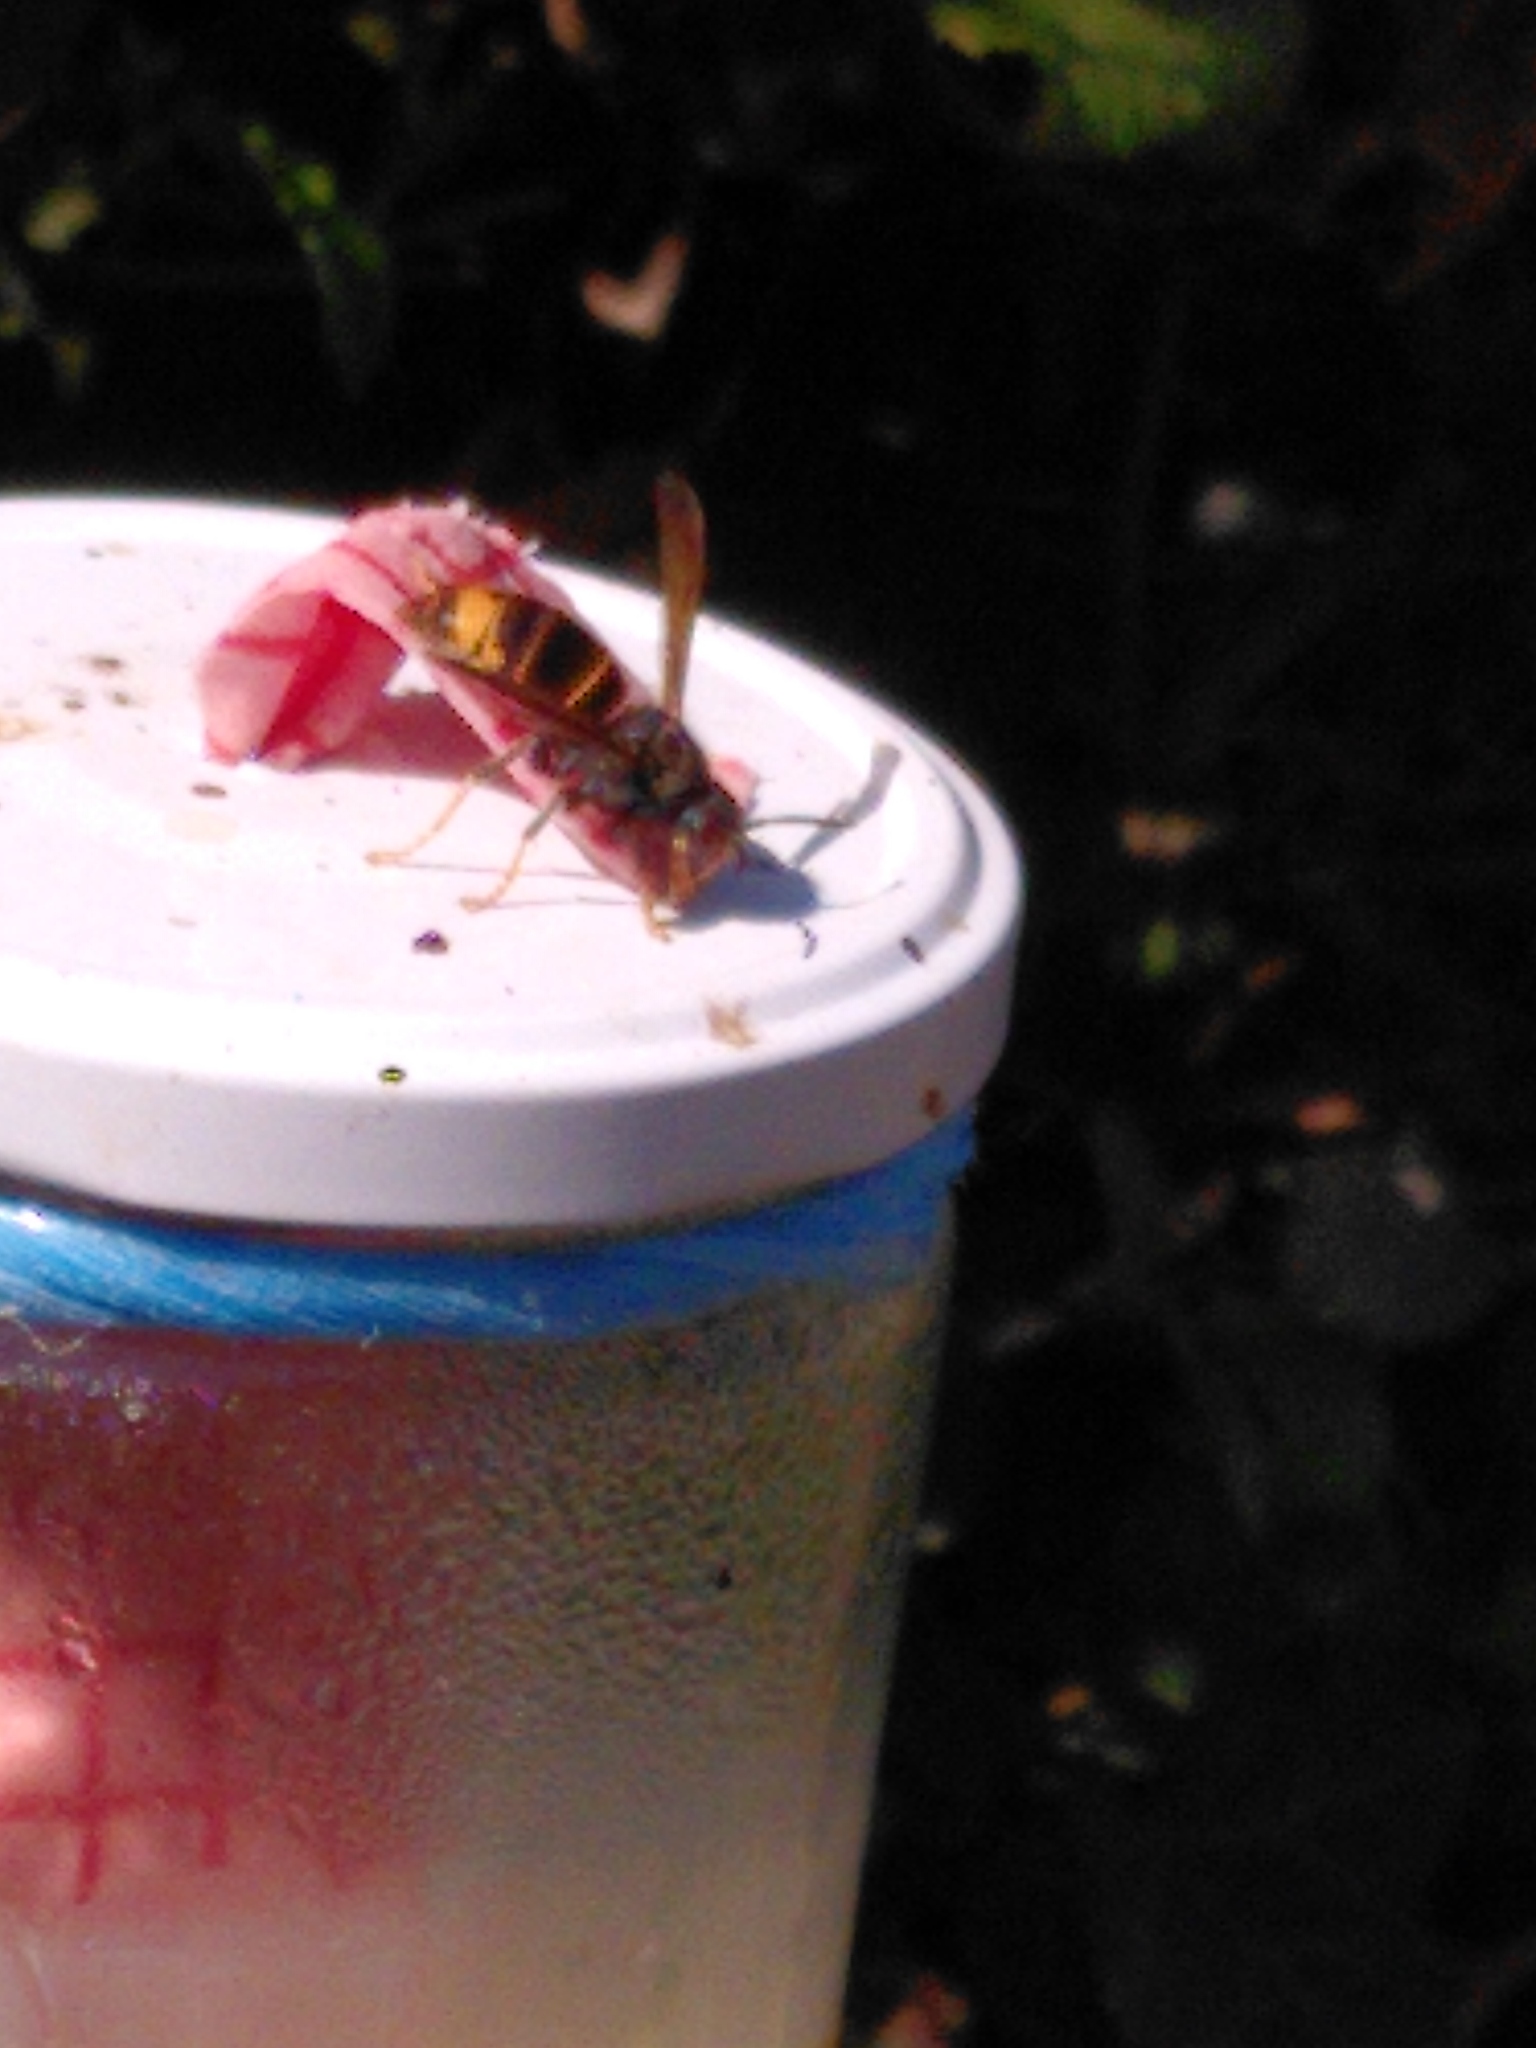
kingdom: Animalia
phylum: Arthropoda
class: Insecta
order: Hymenoptera
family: Vespidae
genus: Vespa
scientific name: Vespa velutina
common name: Asian hornet
